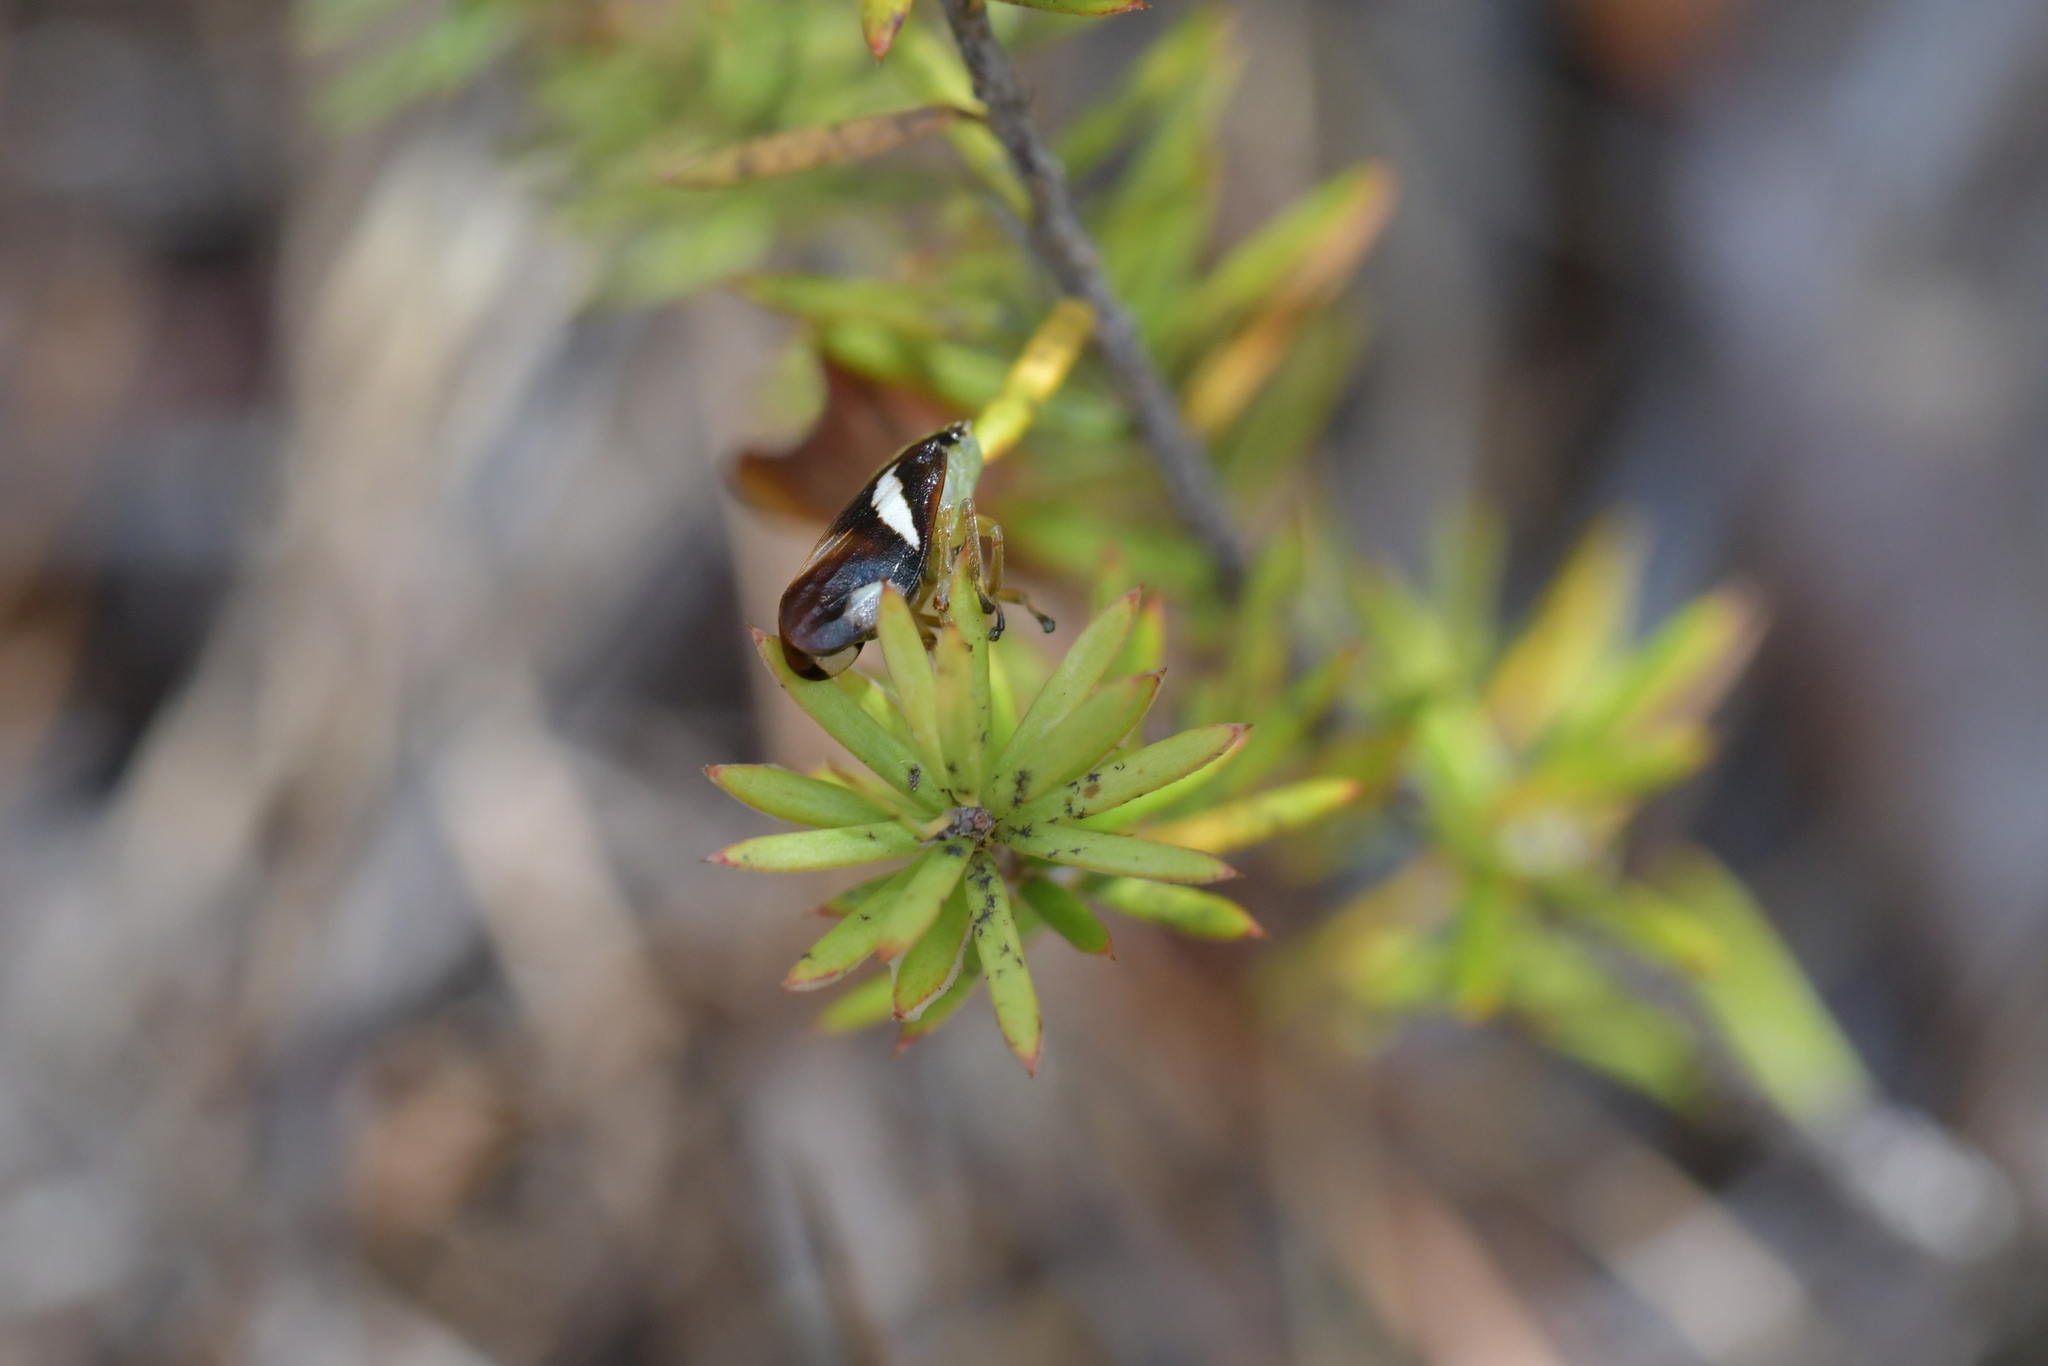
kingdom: Animalia
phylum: Arthropoda
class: Insecta
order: Hemiptera
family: Aphrophoridae
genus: Carystoterpa
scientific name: Carystoterpa fingens
